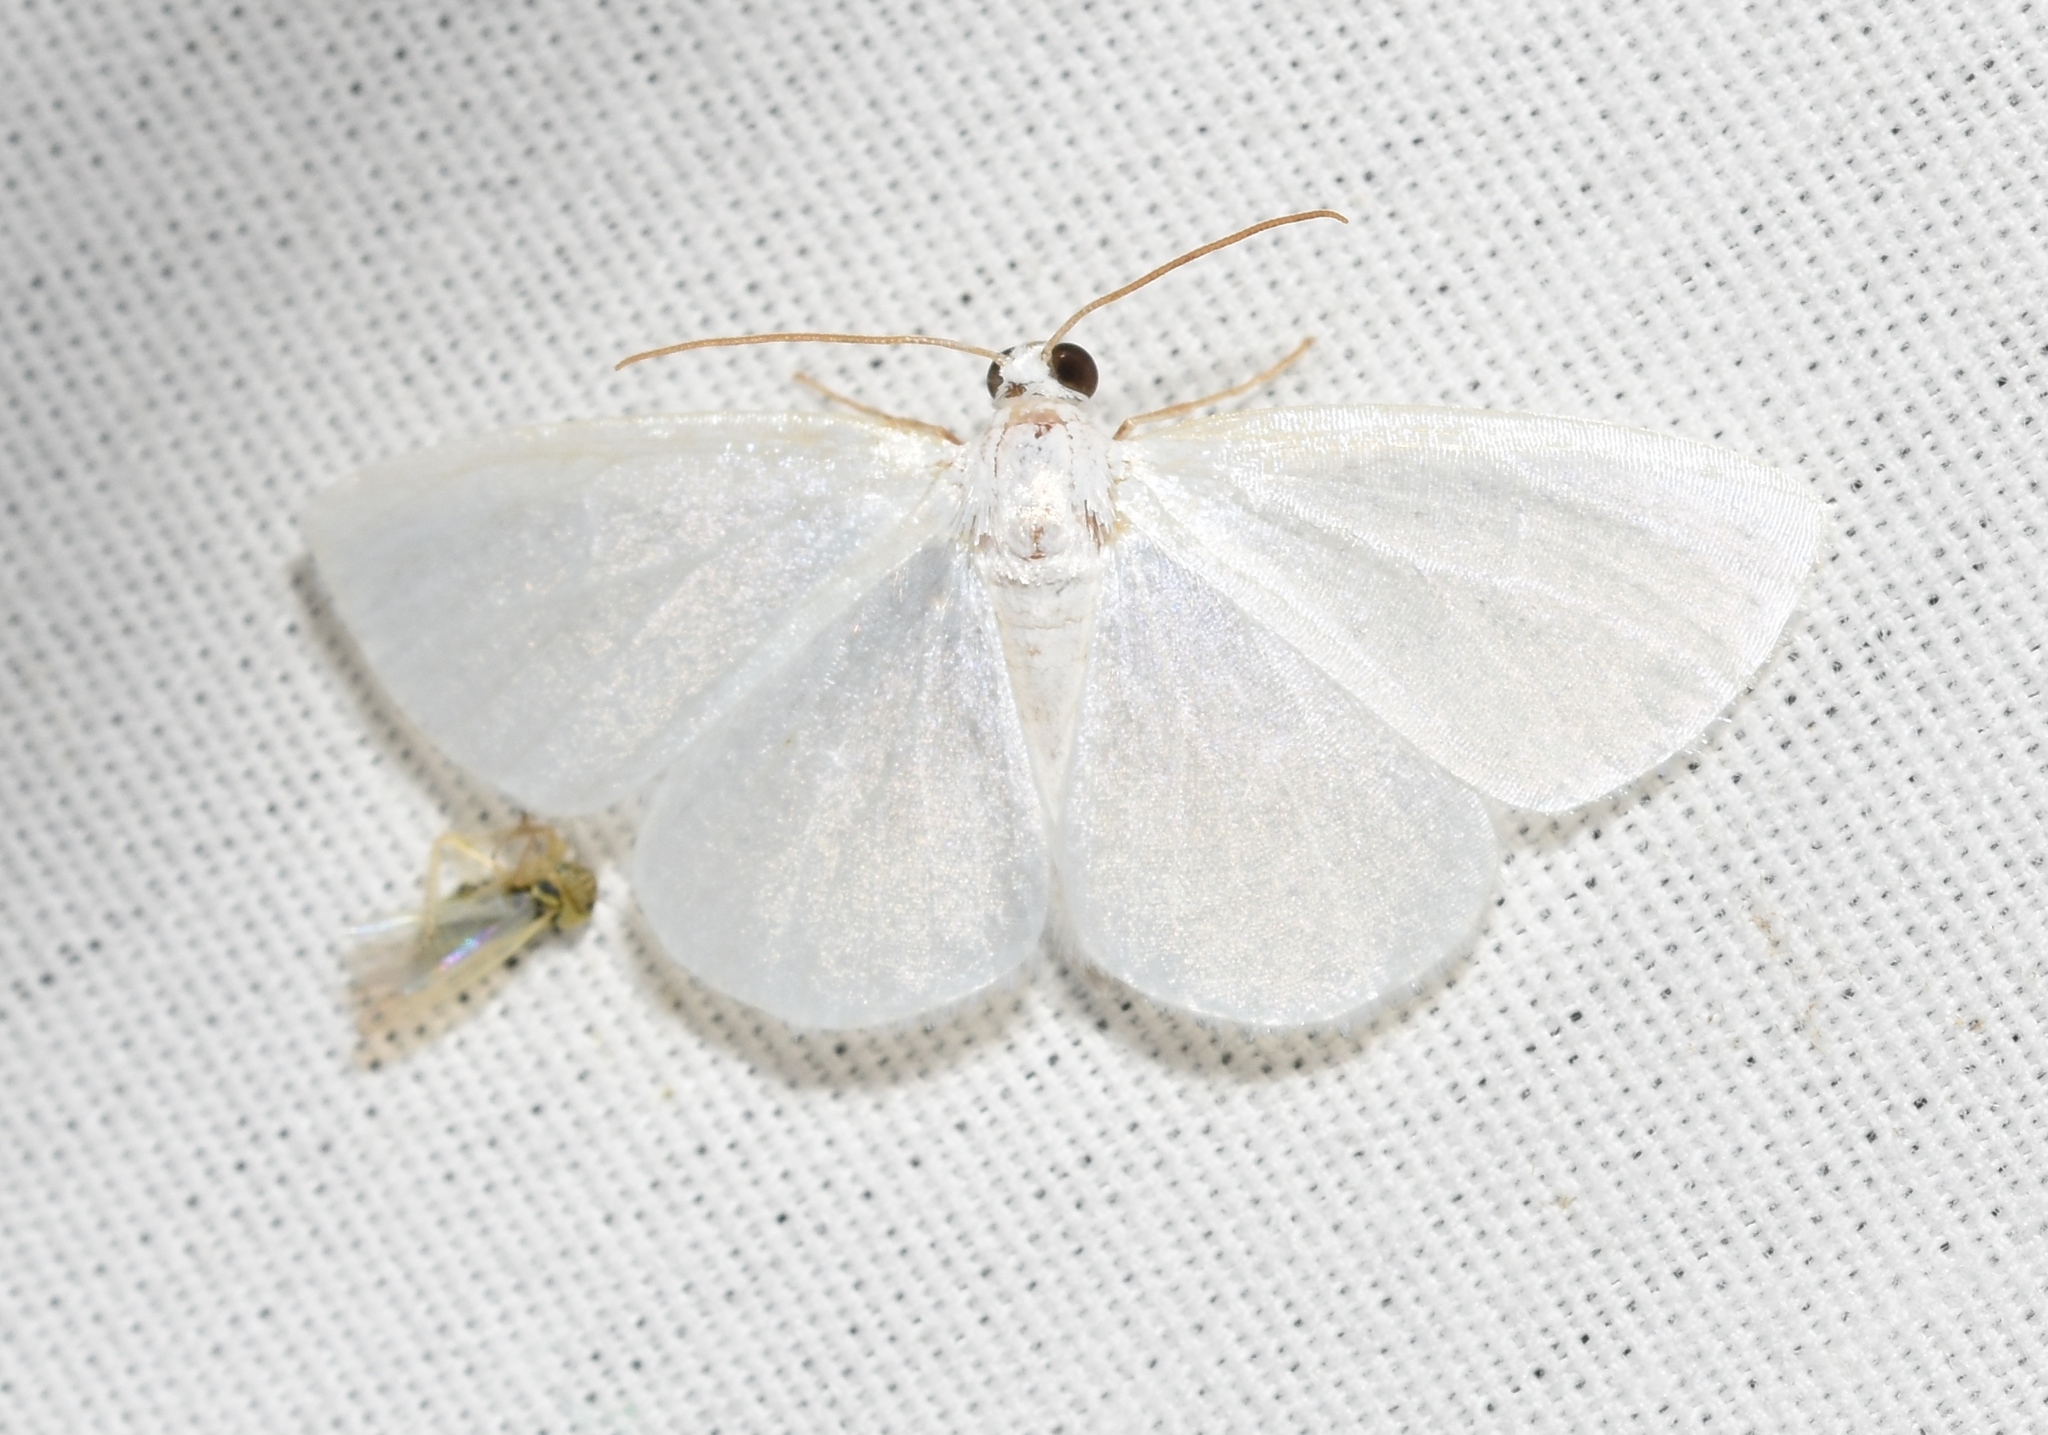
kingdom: Animalia
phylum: Arthropoda
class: Insecta
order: Lepidoptera
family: Geometridae
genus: Lomographa
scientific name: Lomographa vestaliata
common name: White spring moth
